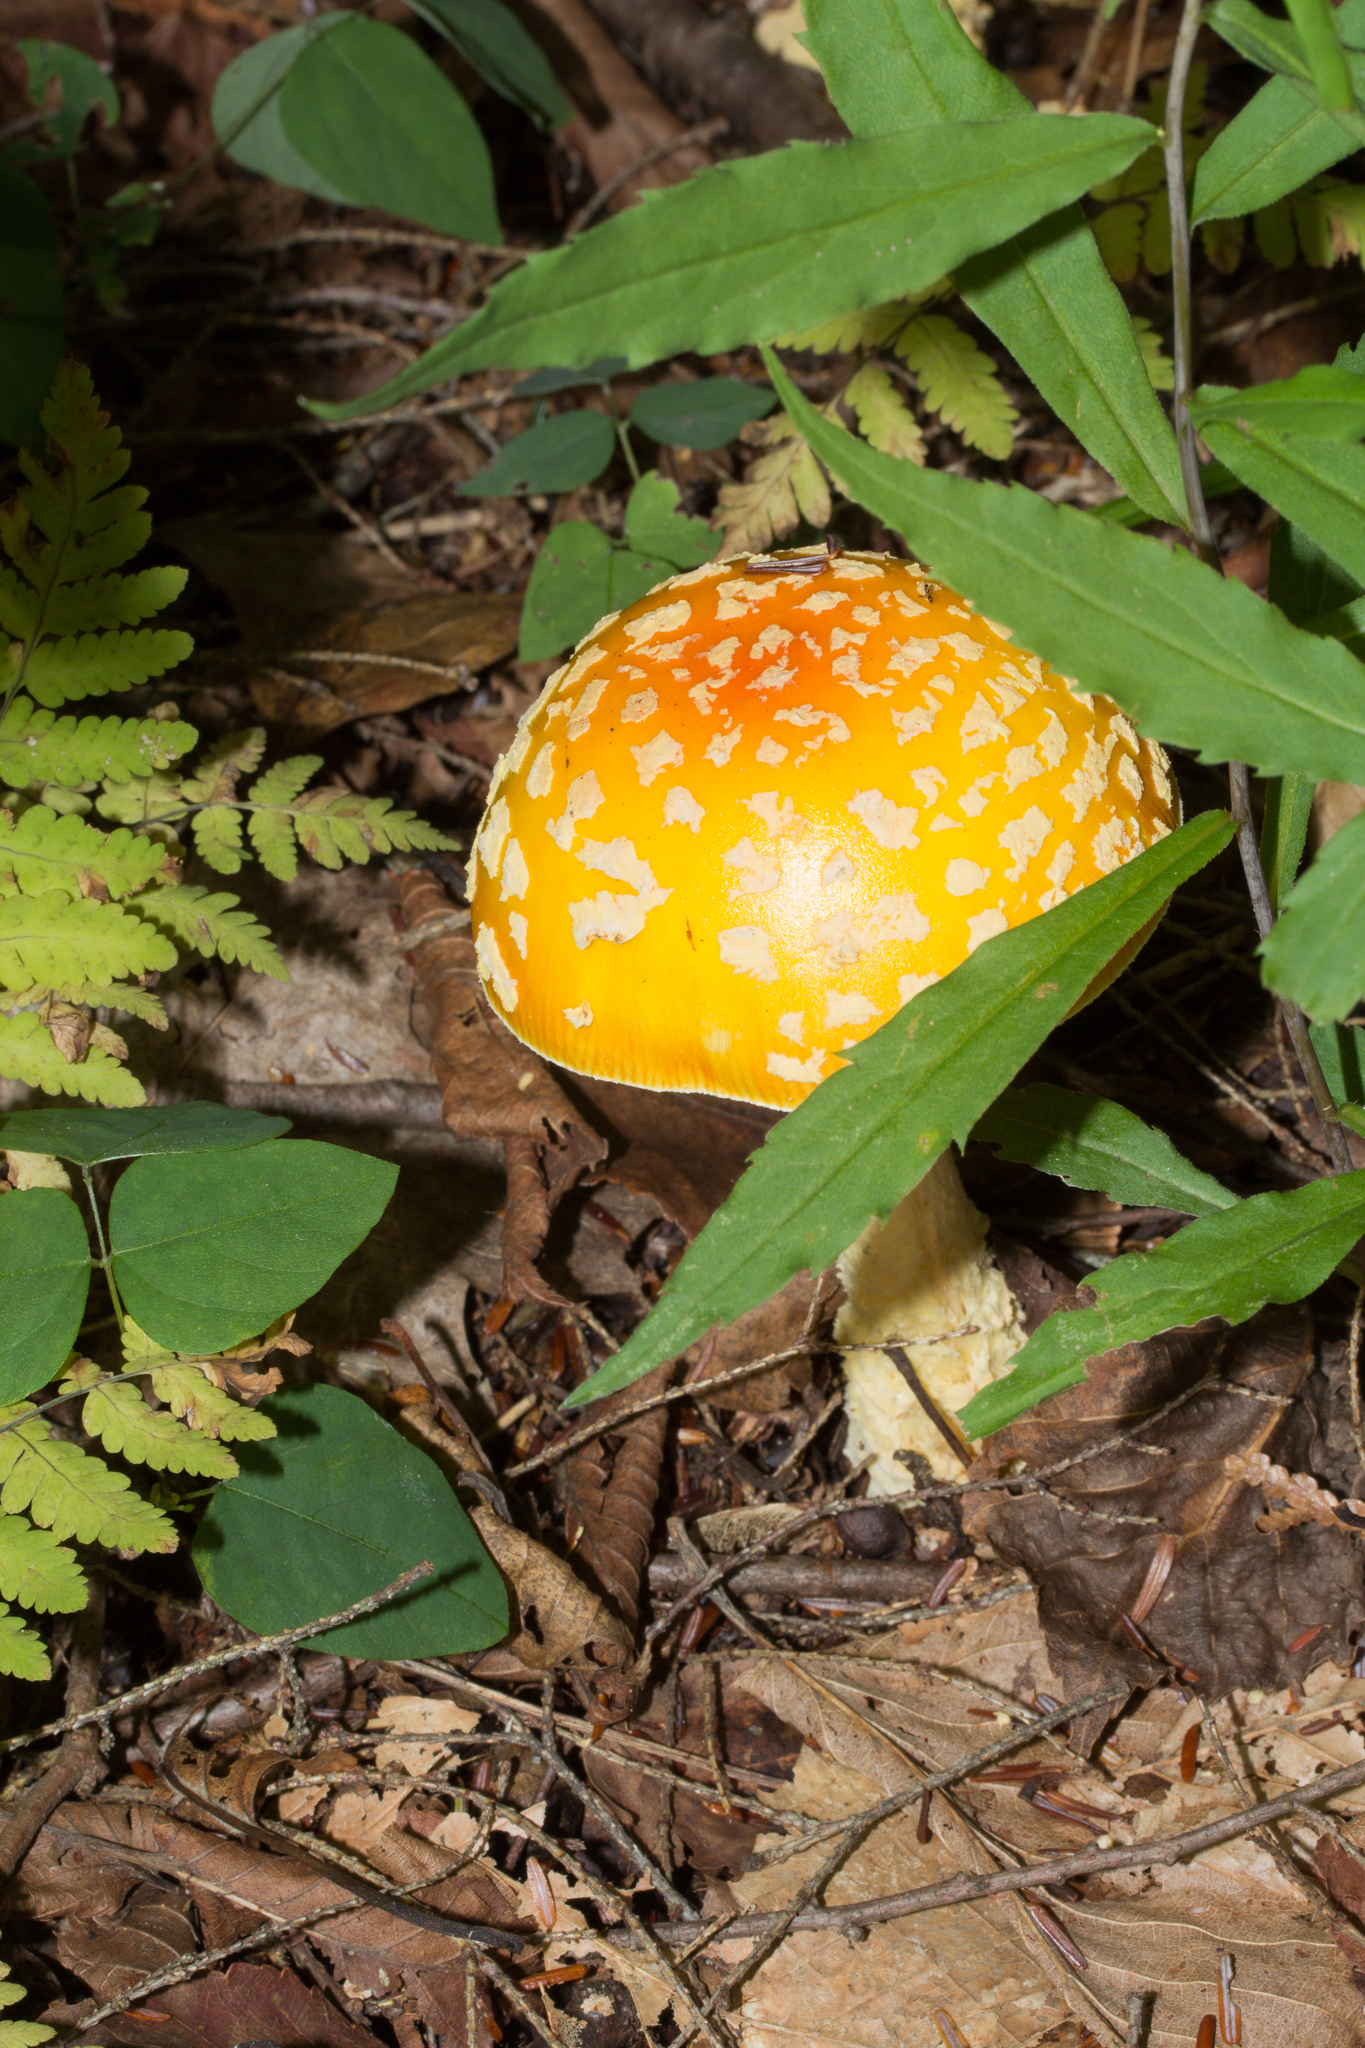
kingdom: Fungi
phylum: Basidiomycota
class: Agaricomycetes
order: Agaricales
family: Amanitaceae
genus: Amanita
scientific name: Amanita muscaria
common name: Fly agaric
